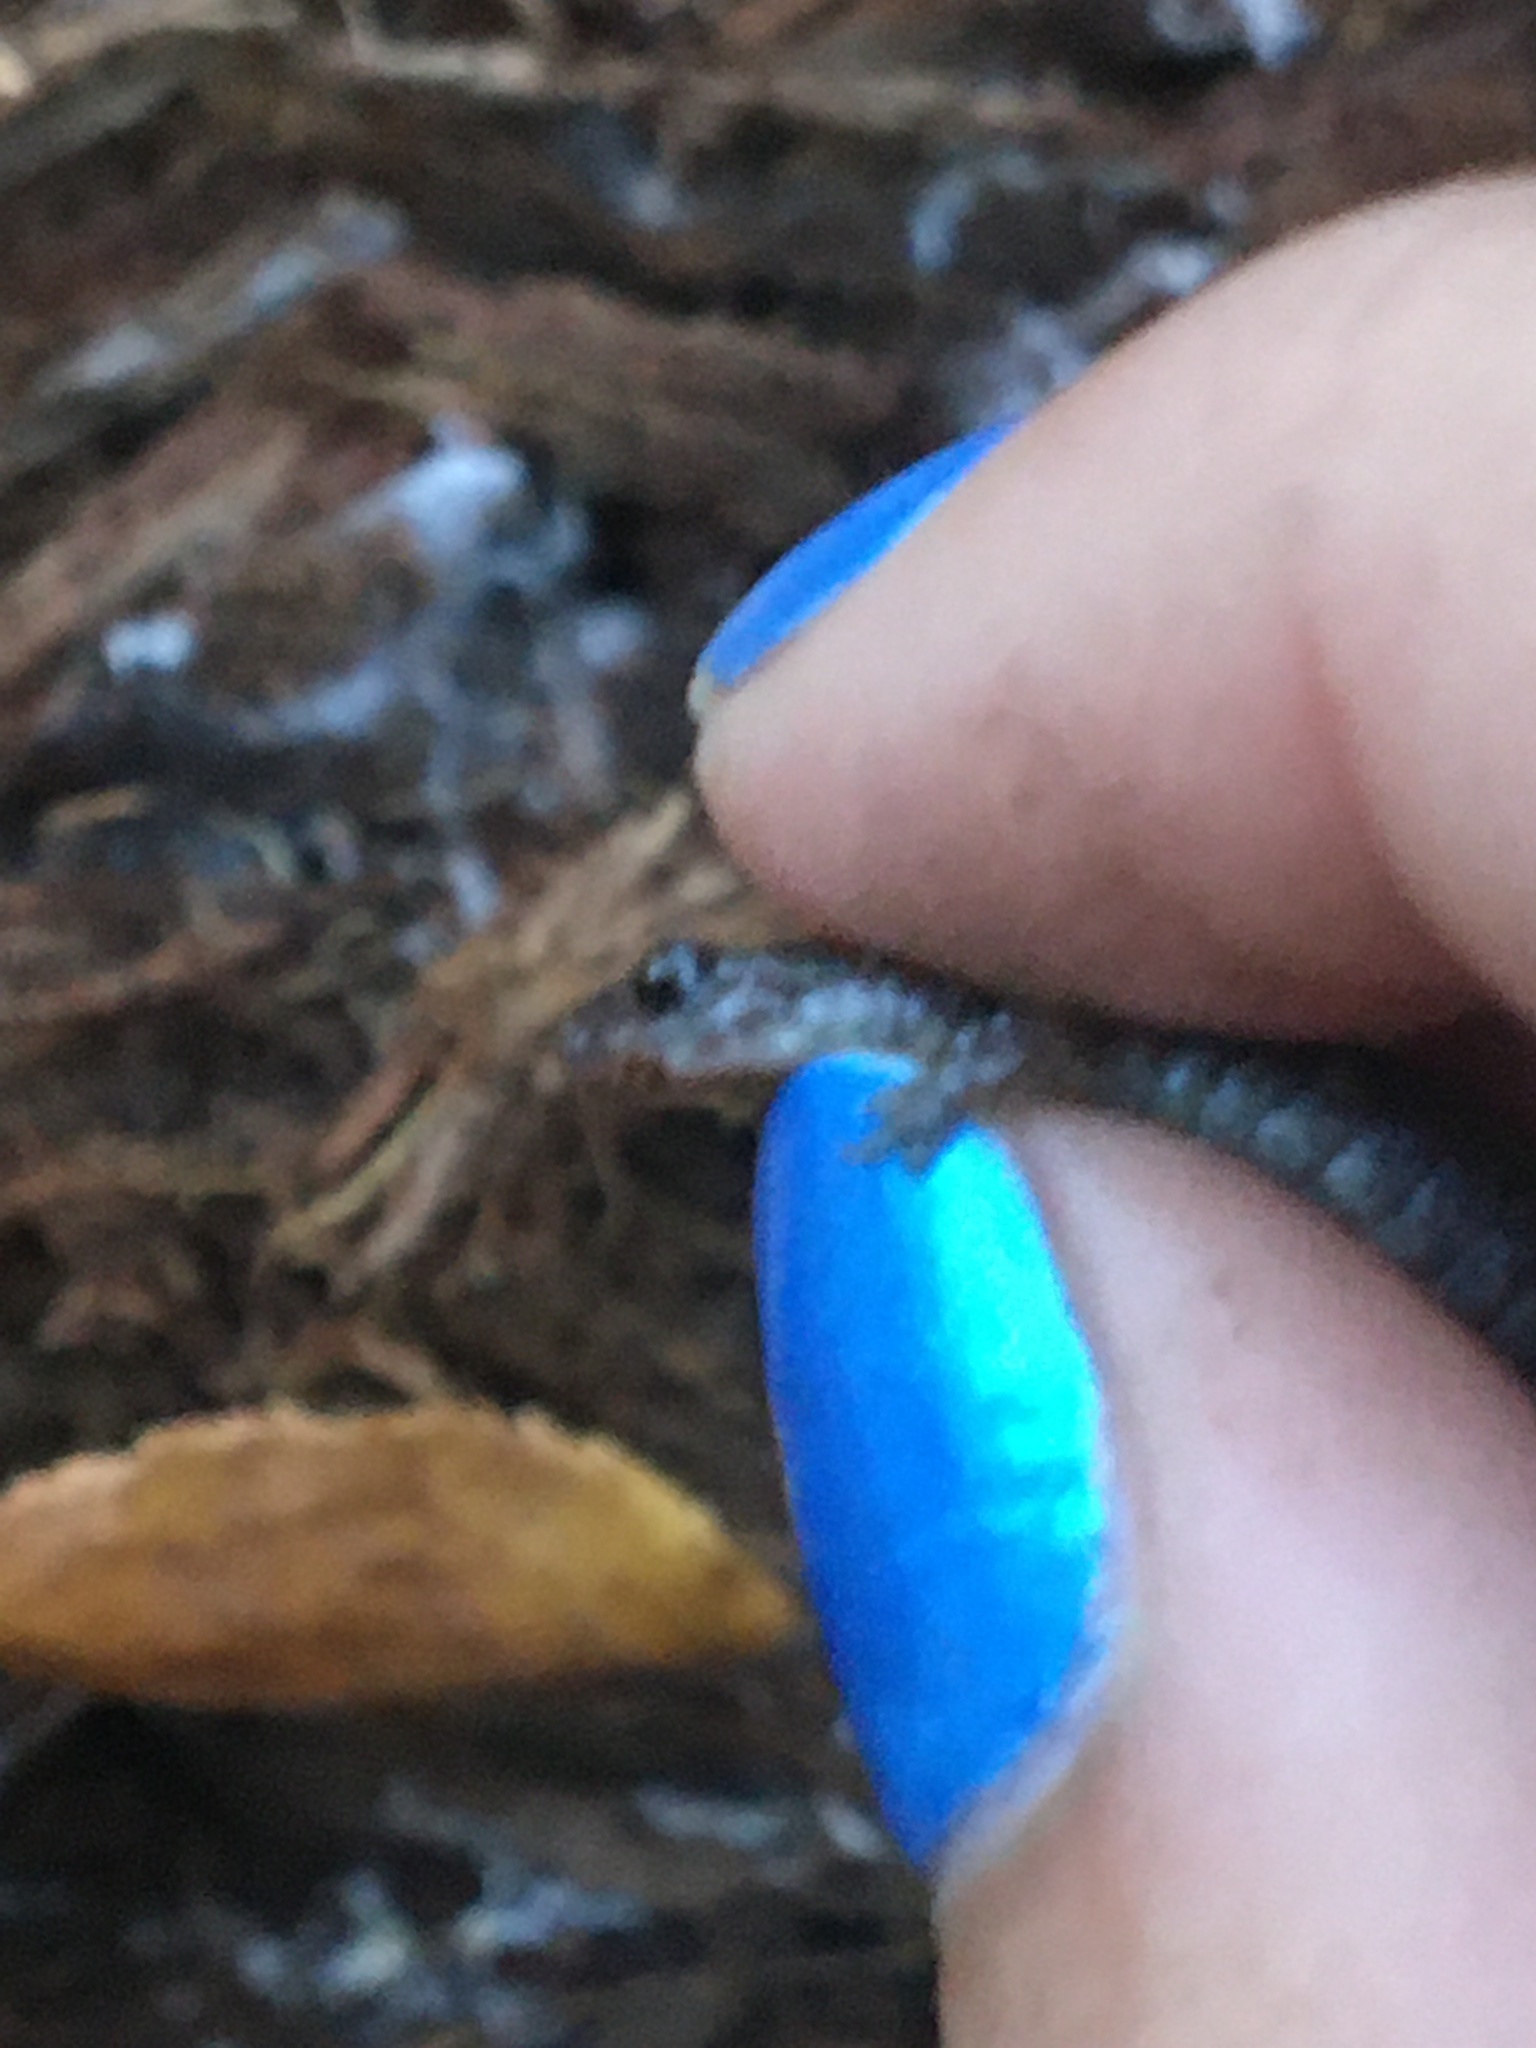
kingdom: Animalia
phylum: Chordata
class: Amphibia
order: Caudata
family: Plethodontidae
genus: Plethodon
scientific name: Plethodon cinereus
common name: Redback salamander
